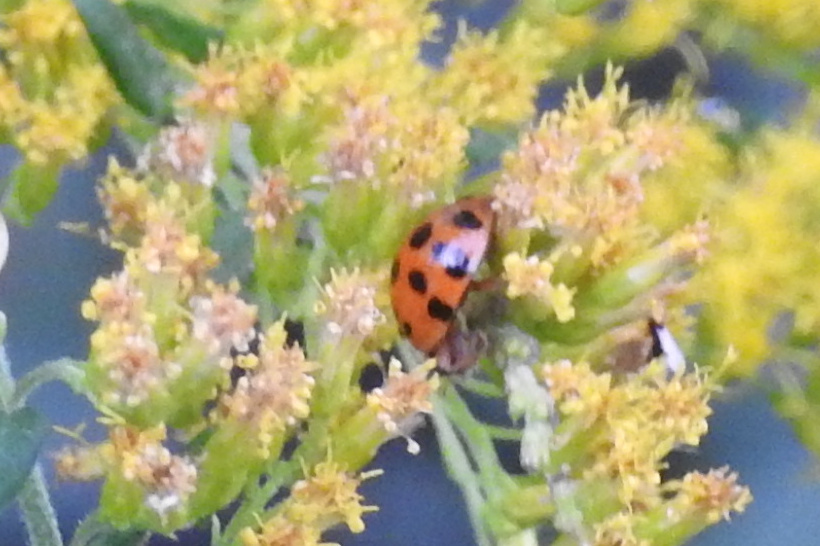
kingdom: Animalia
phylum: Arthropoda
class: Insecta
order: Coleoptera
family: Coccinellidae
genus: Harmonia
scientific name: Harmonia axyridis
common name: Harlequin ladybird
